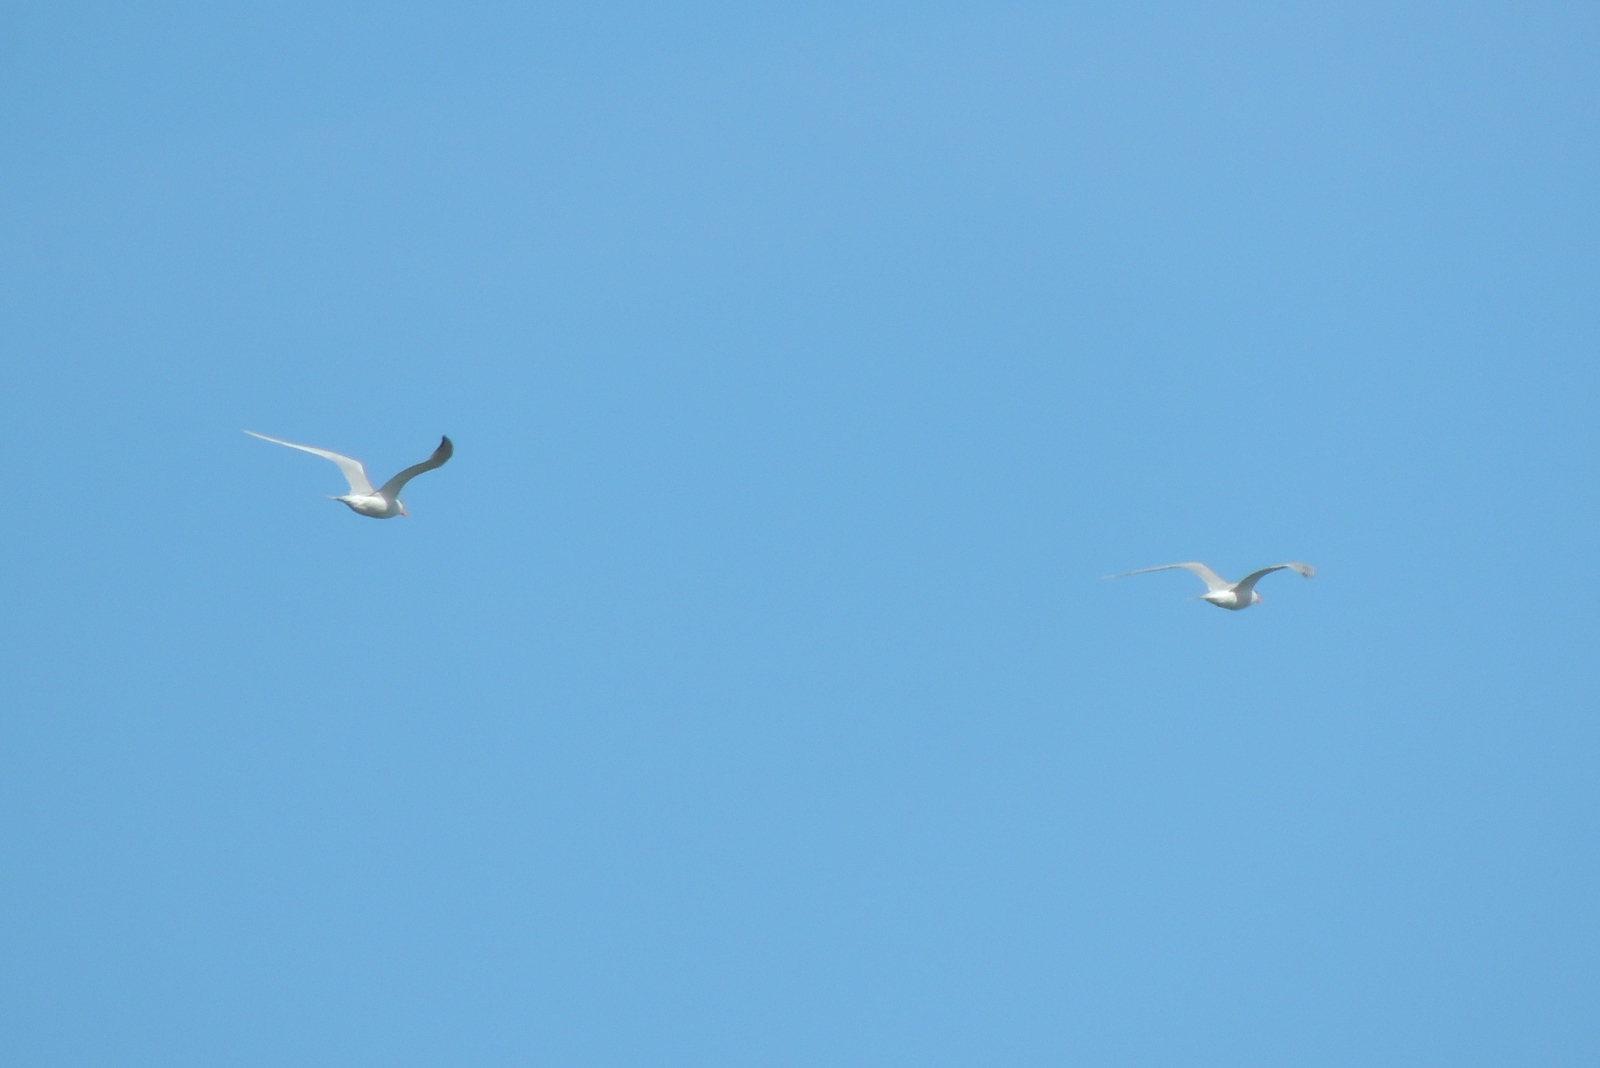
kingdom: Animalia
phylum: Chordata
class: Aves
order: Charadriiformes
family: Laridae
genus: Thalasseus
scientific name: Thalasseus maximus
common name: Royal tern
